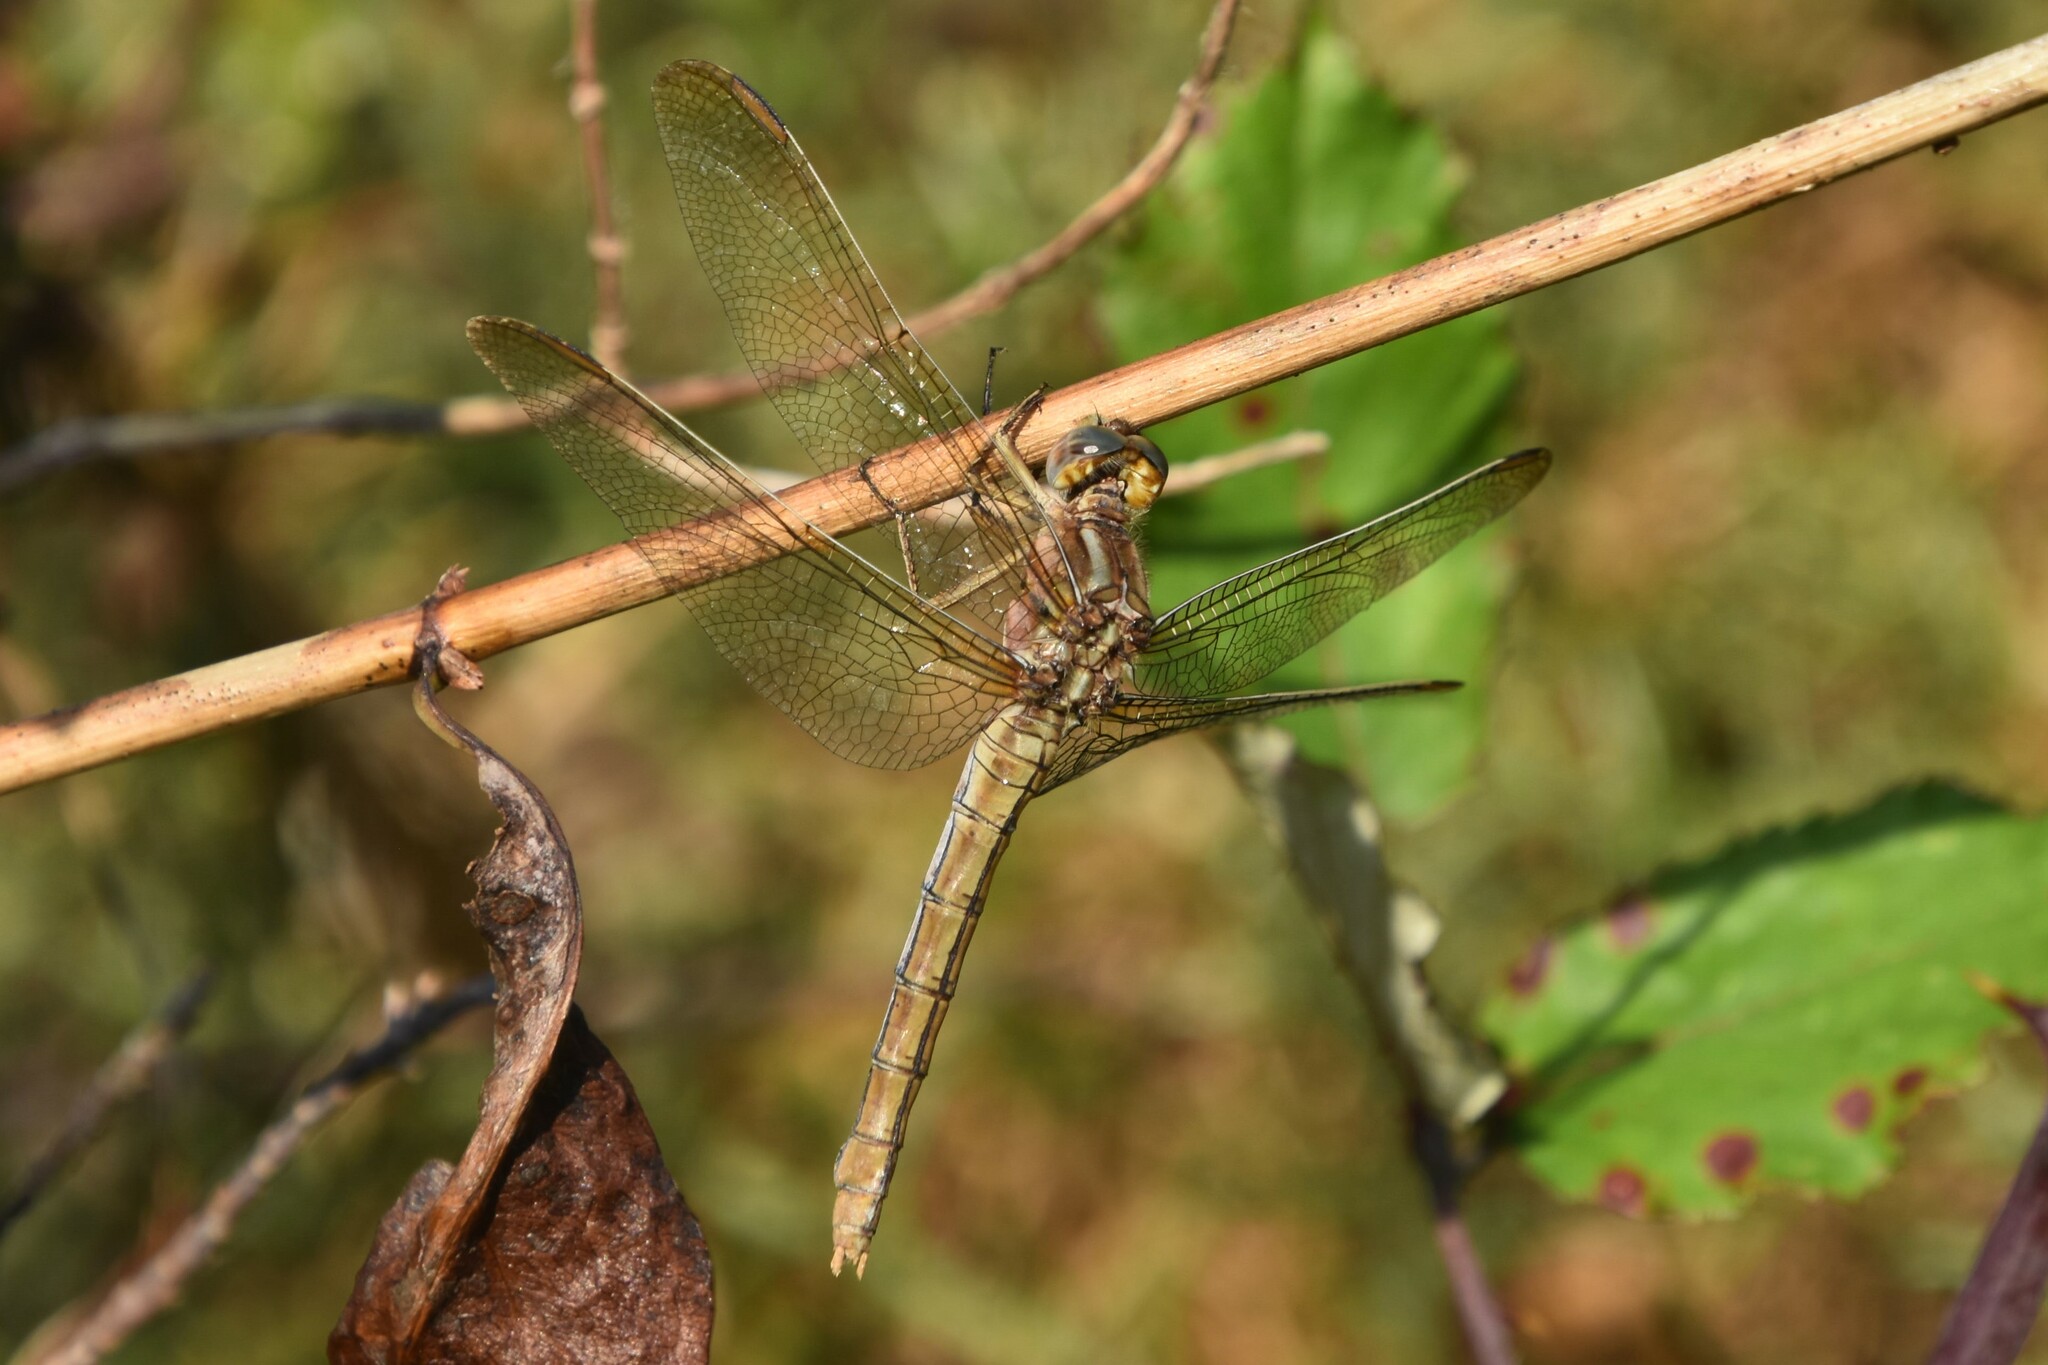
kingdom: Animalia
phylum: Arthropoda
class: Insecta
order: Odonata
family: Libellulidae
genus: Orthetrum
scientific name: Orthetrum coerulescens
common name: Keeled skimmer
